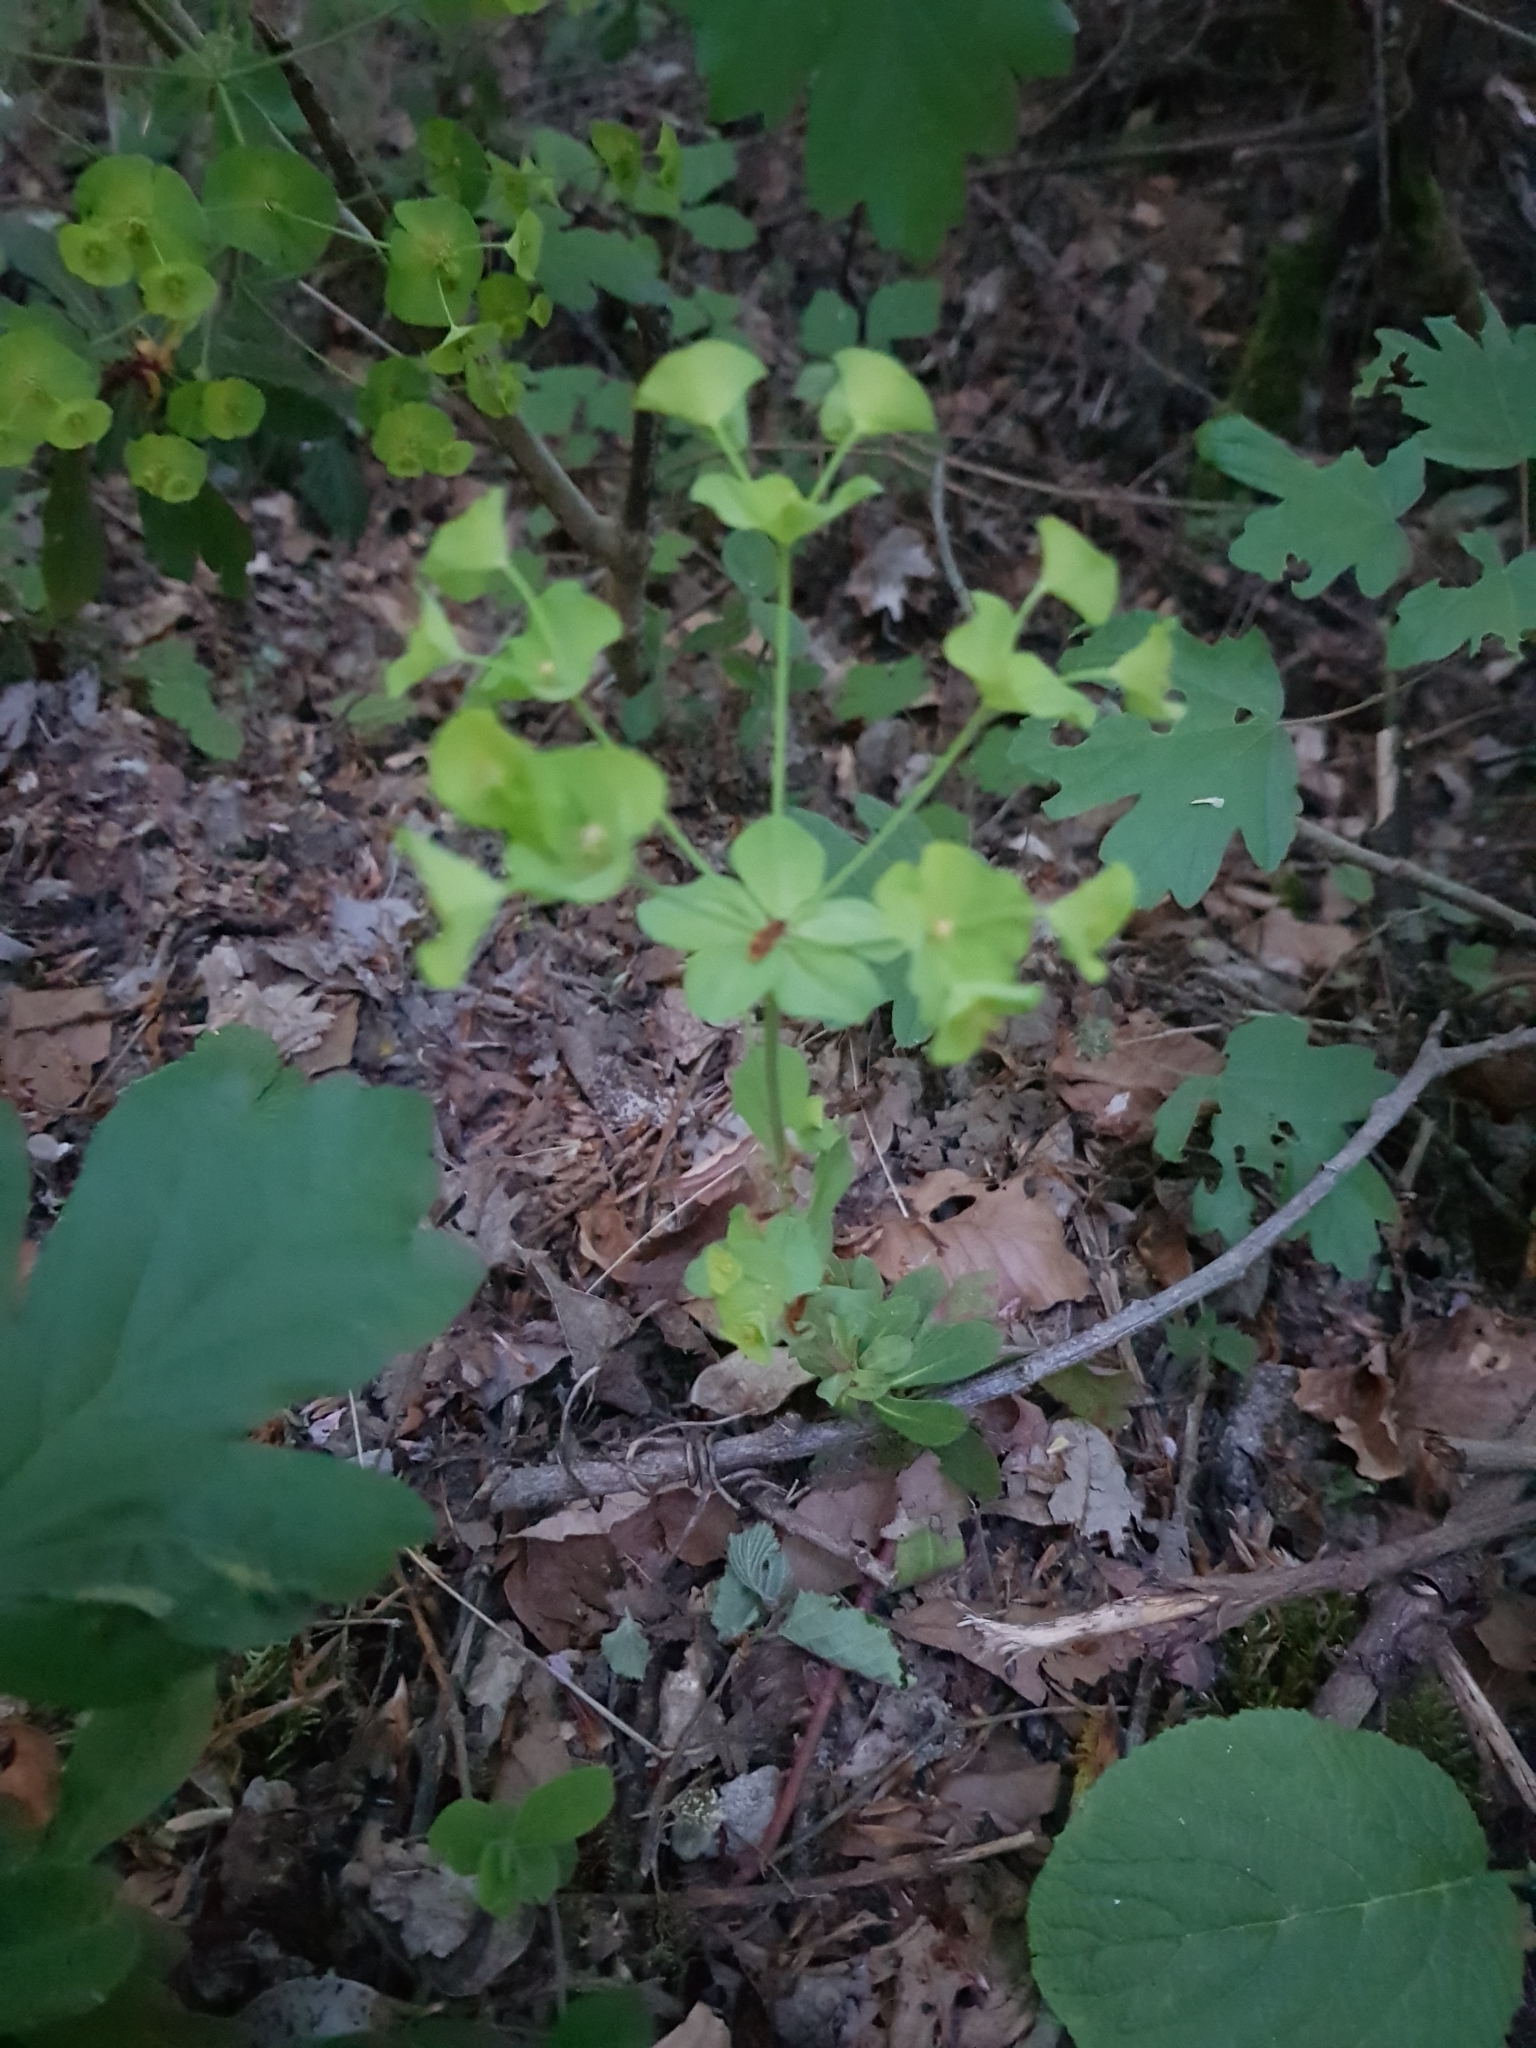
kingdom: Plantae
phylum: Tracheophyta
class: Magnoliopsida
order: Malpighiales
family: Euphorbiaceae
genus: Euphorbia
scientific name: Euphorbia amygdaloides
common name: Wood spurge
